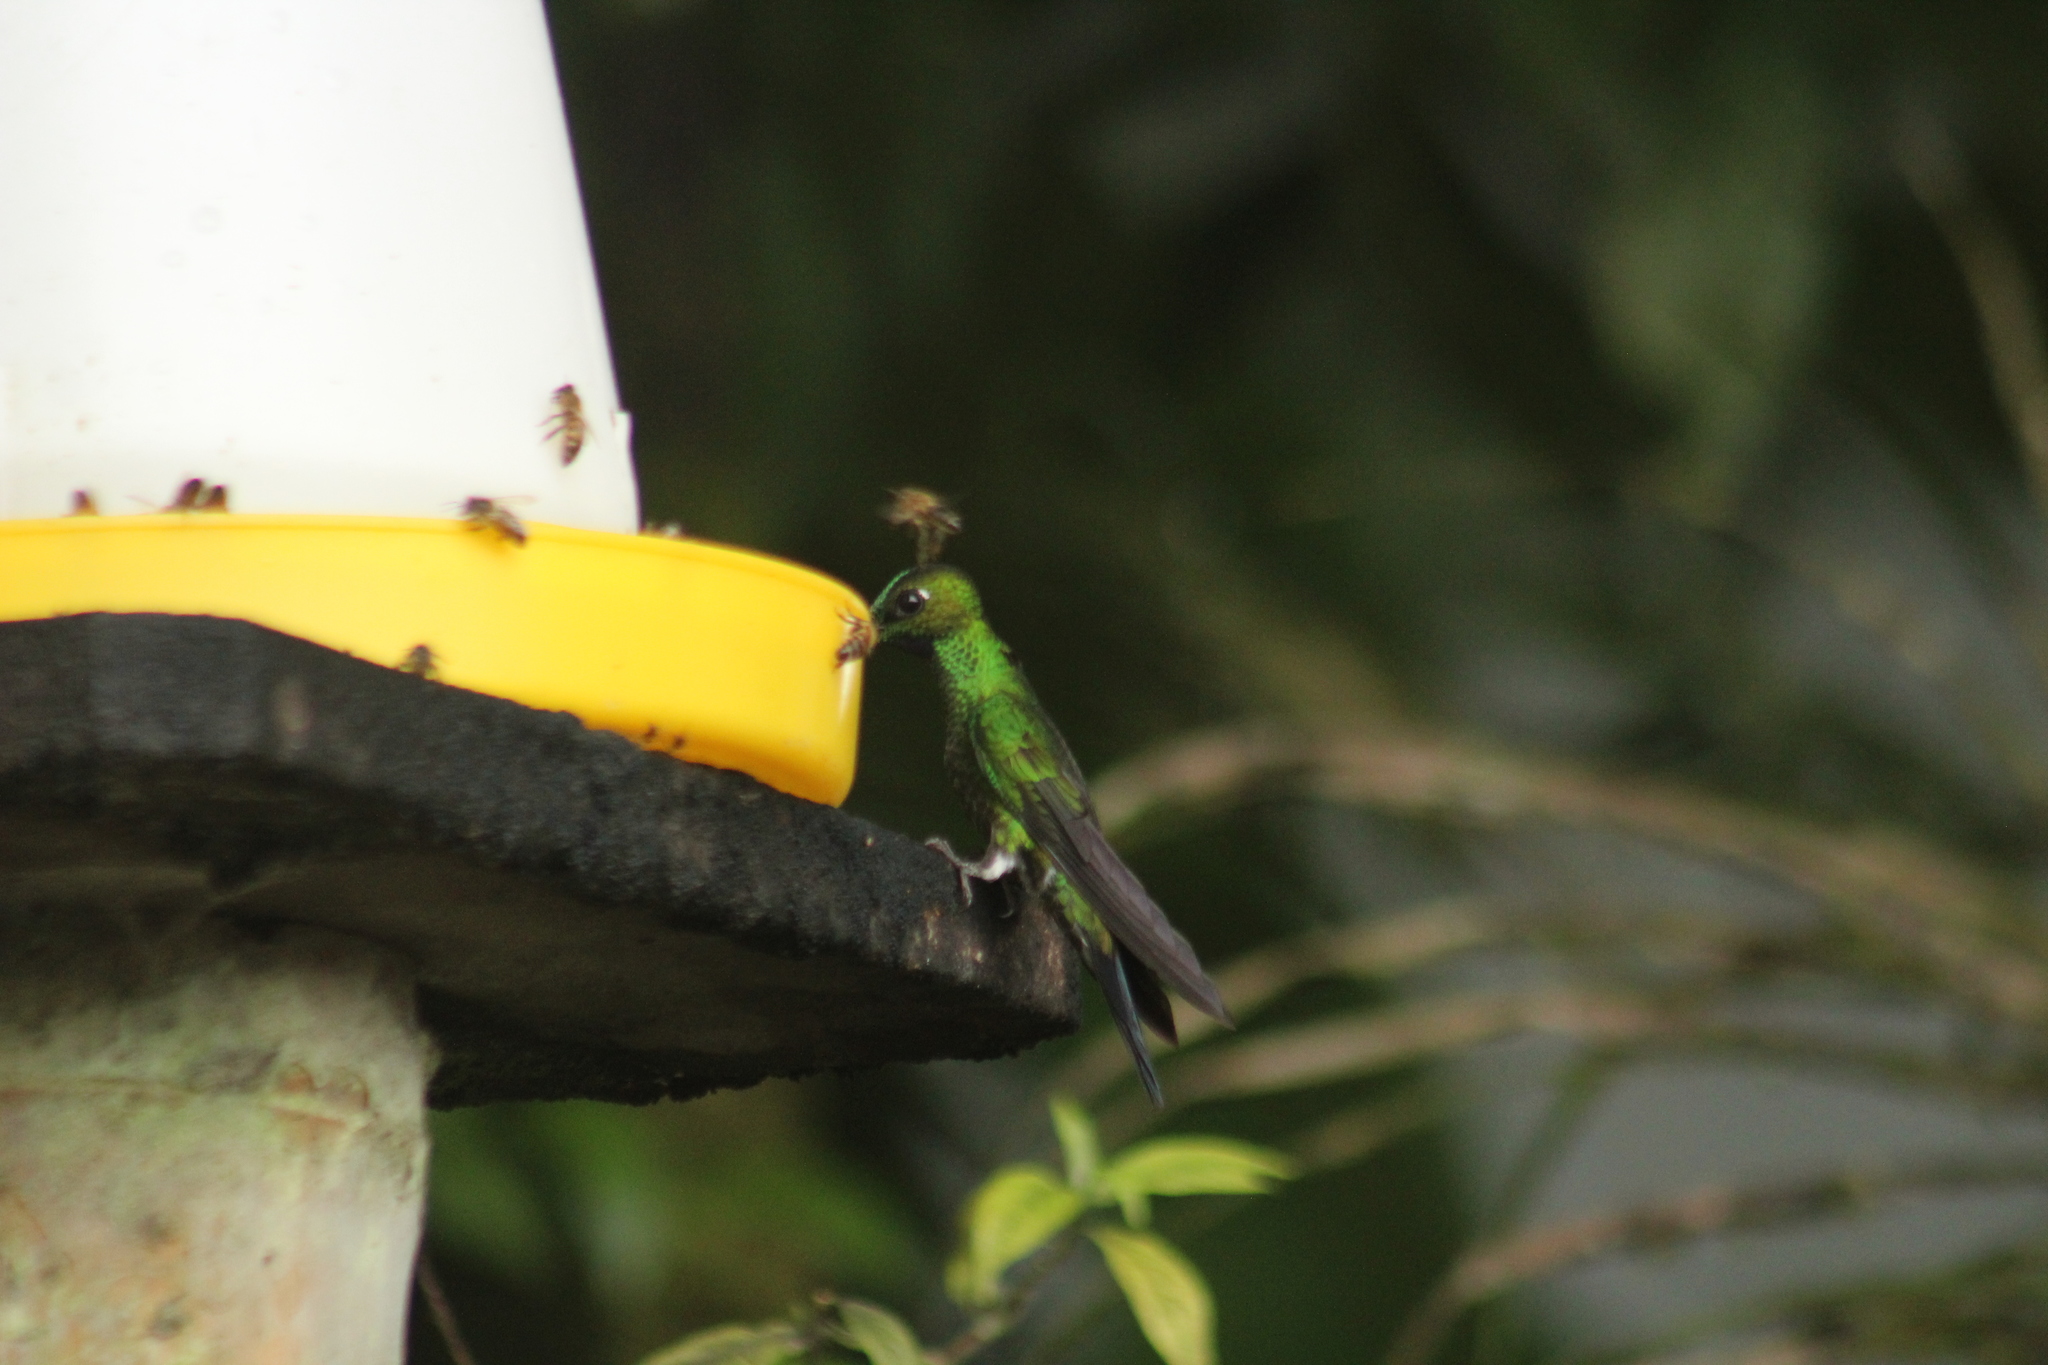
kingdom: Animalia
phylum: Chordata
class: Aves
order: Apodiformes
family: Trochilidae
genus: Heliodoxa
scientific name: Heliodoxa jacula
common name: Green-crowned brilliant
